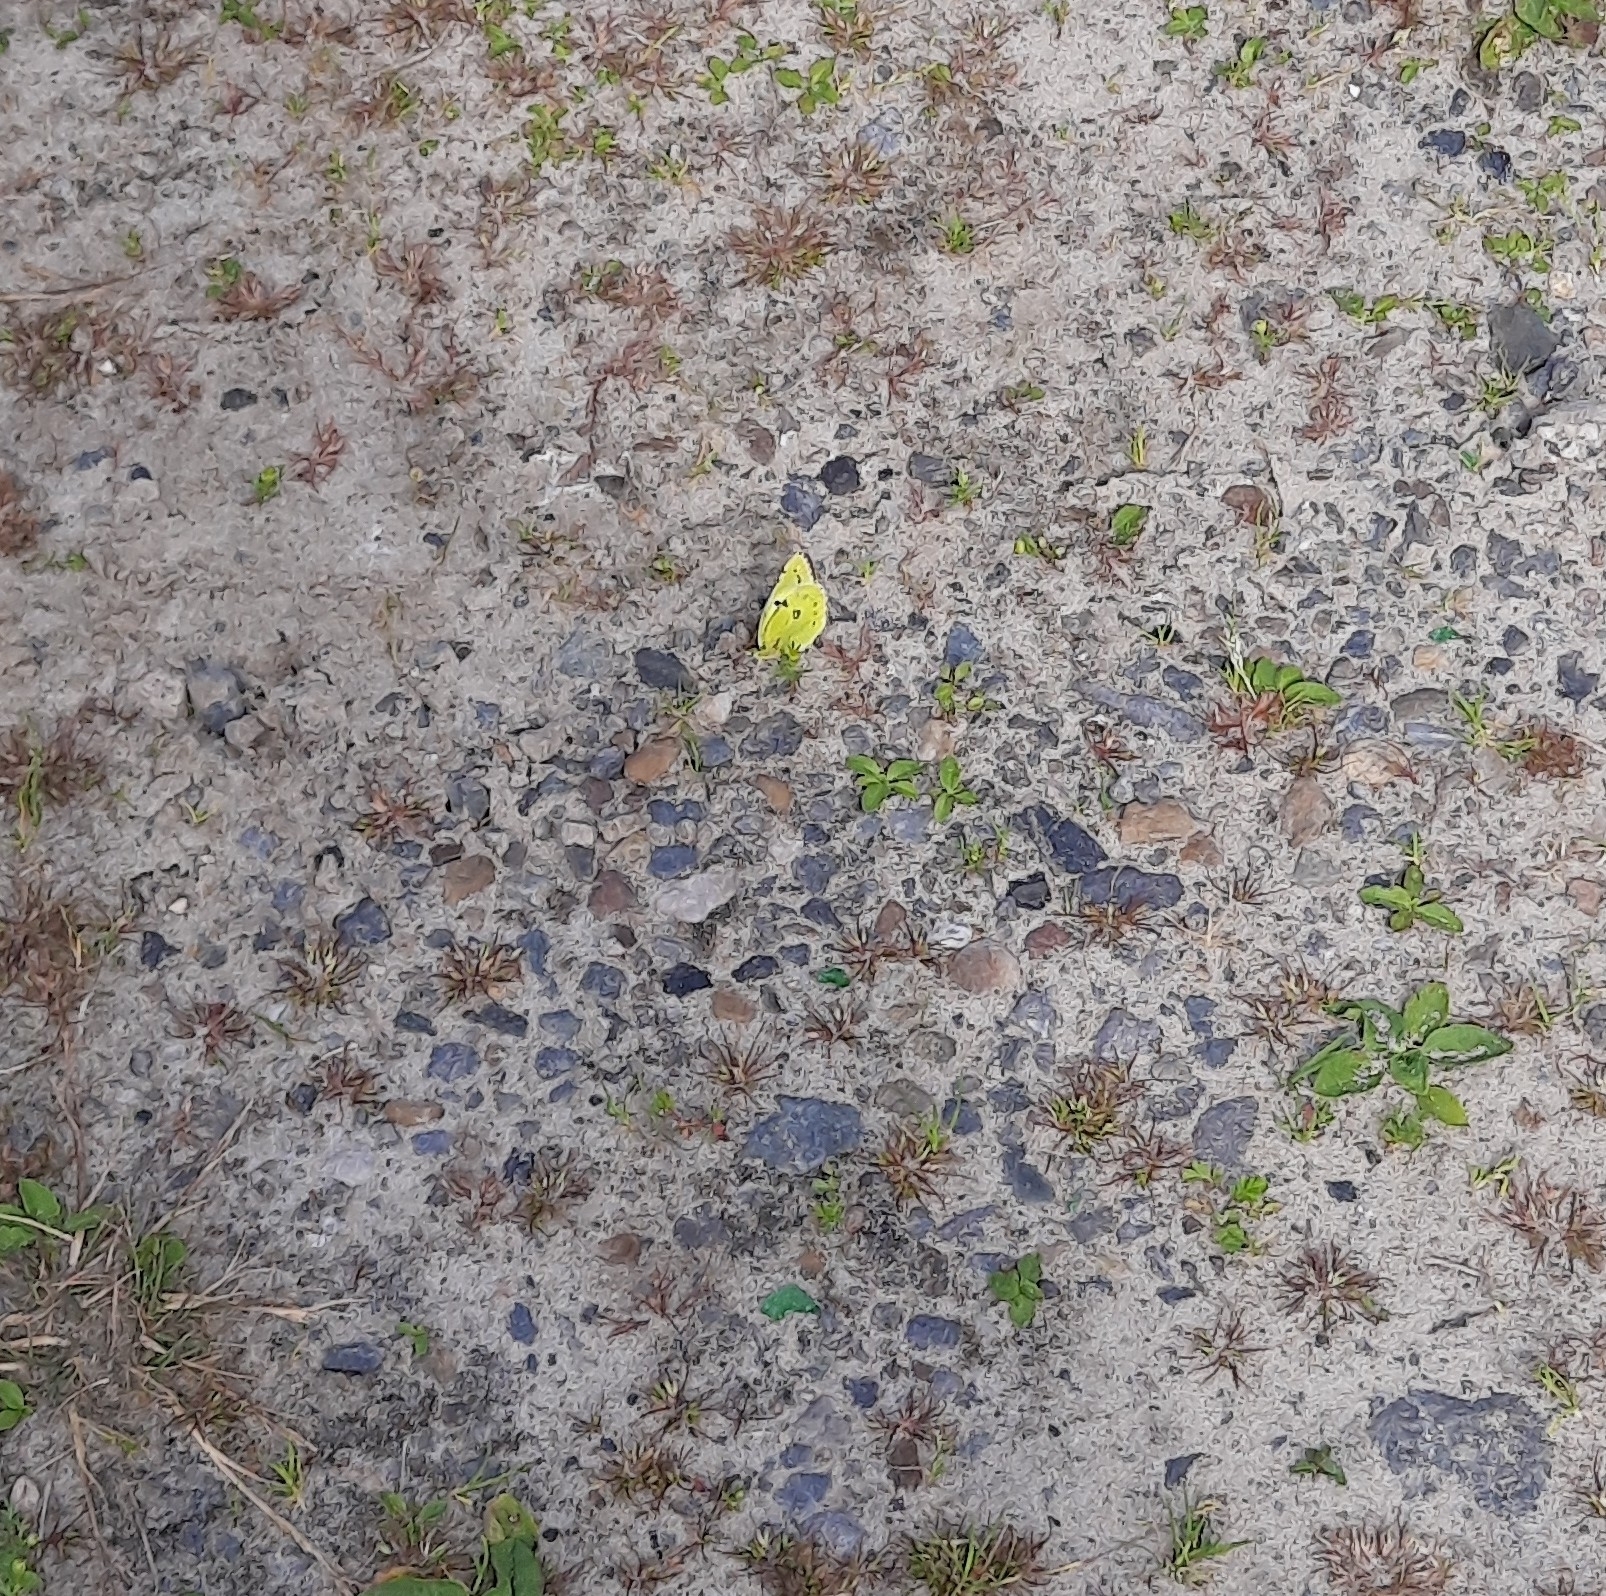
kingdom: Animalia
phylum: Arthropoda
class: Insecta
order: Lepidoptera
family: Pieridae
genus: Colias
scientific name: Colias hyale
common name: Pale clouded yellow
